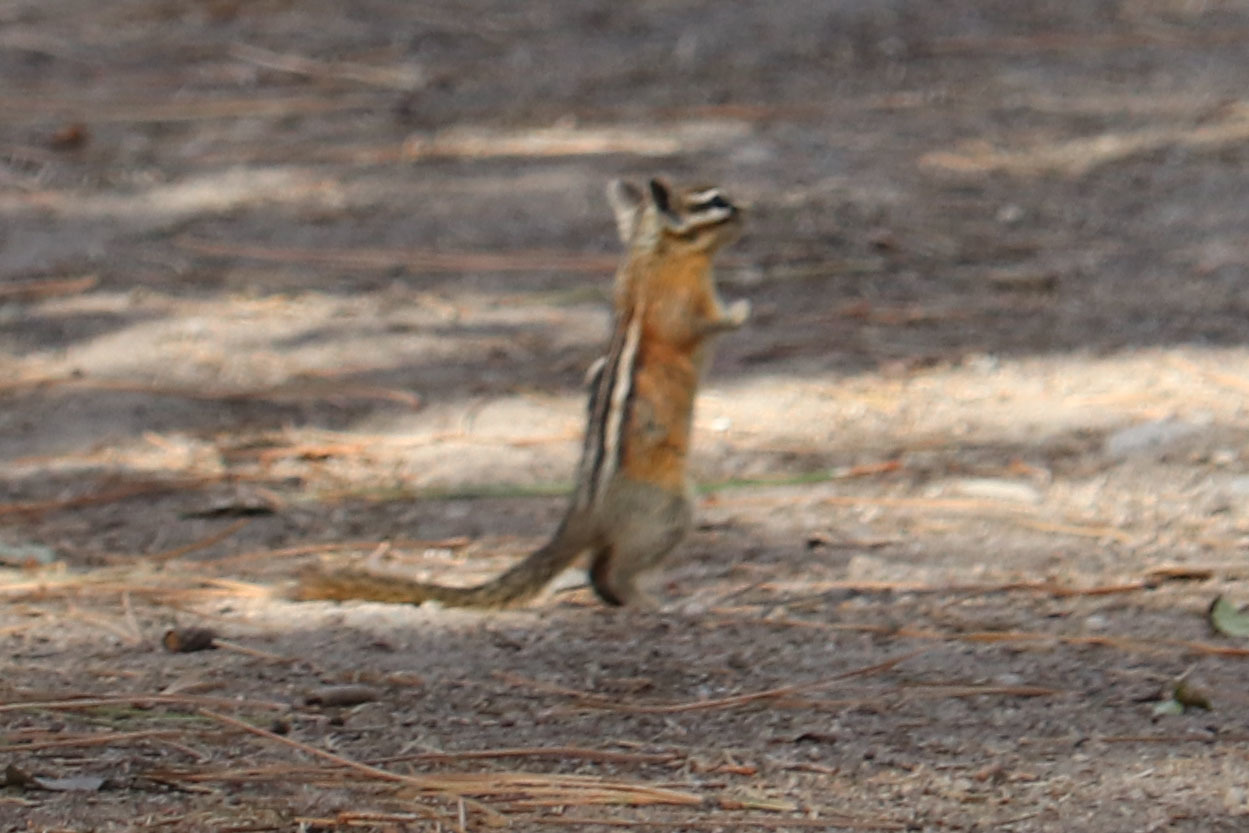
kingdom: Animalia
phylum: Chordata
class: Mammalia
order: Rodentia
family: Sciuridae
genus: Tamias
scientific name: Tamias amoenus
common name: Yellow-pine chipmunk
